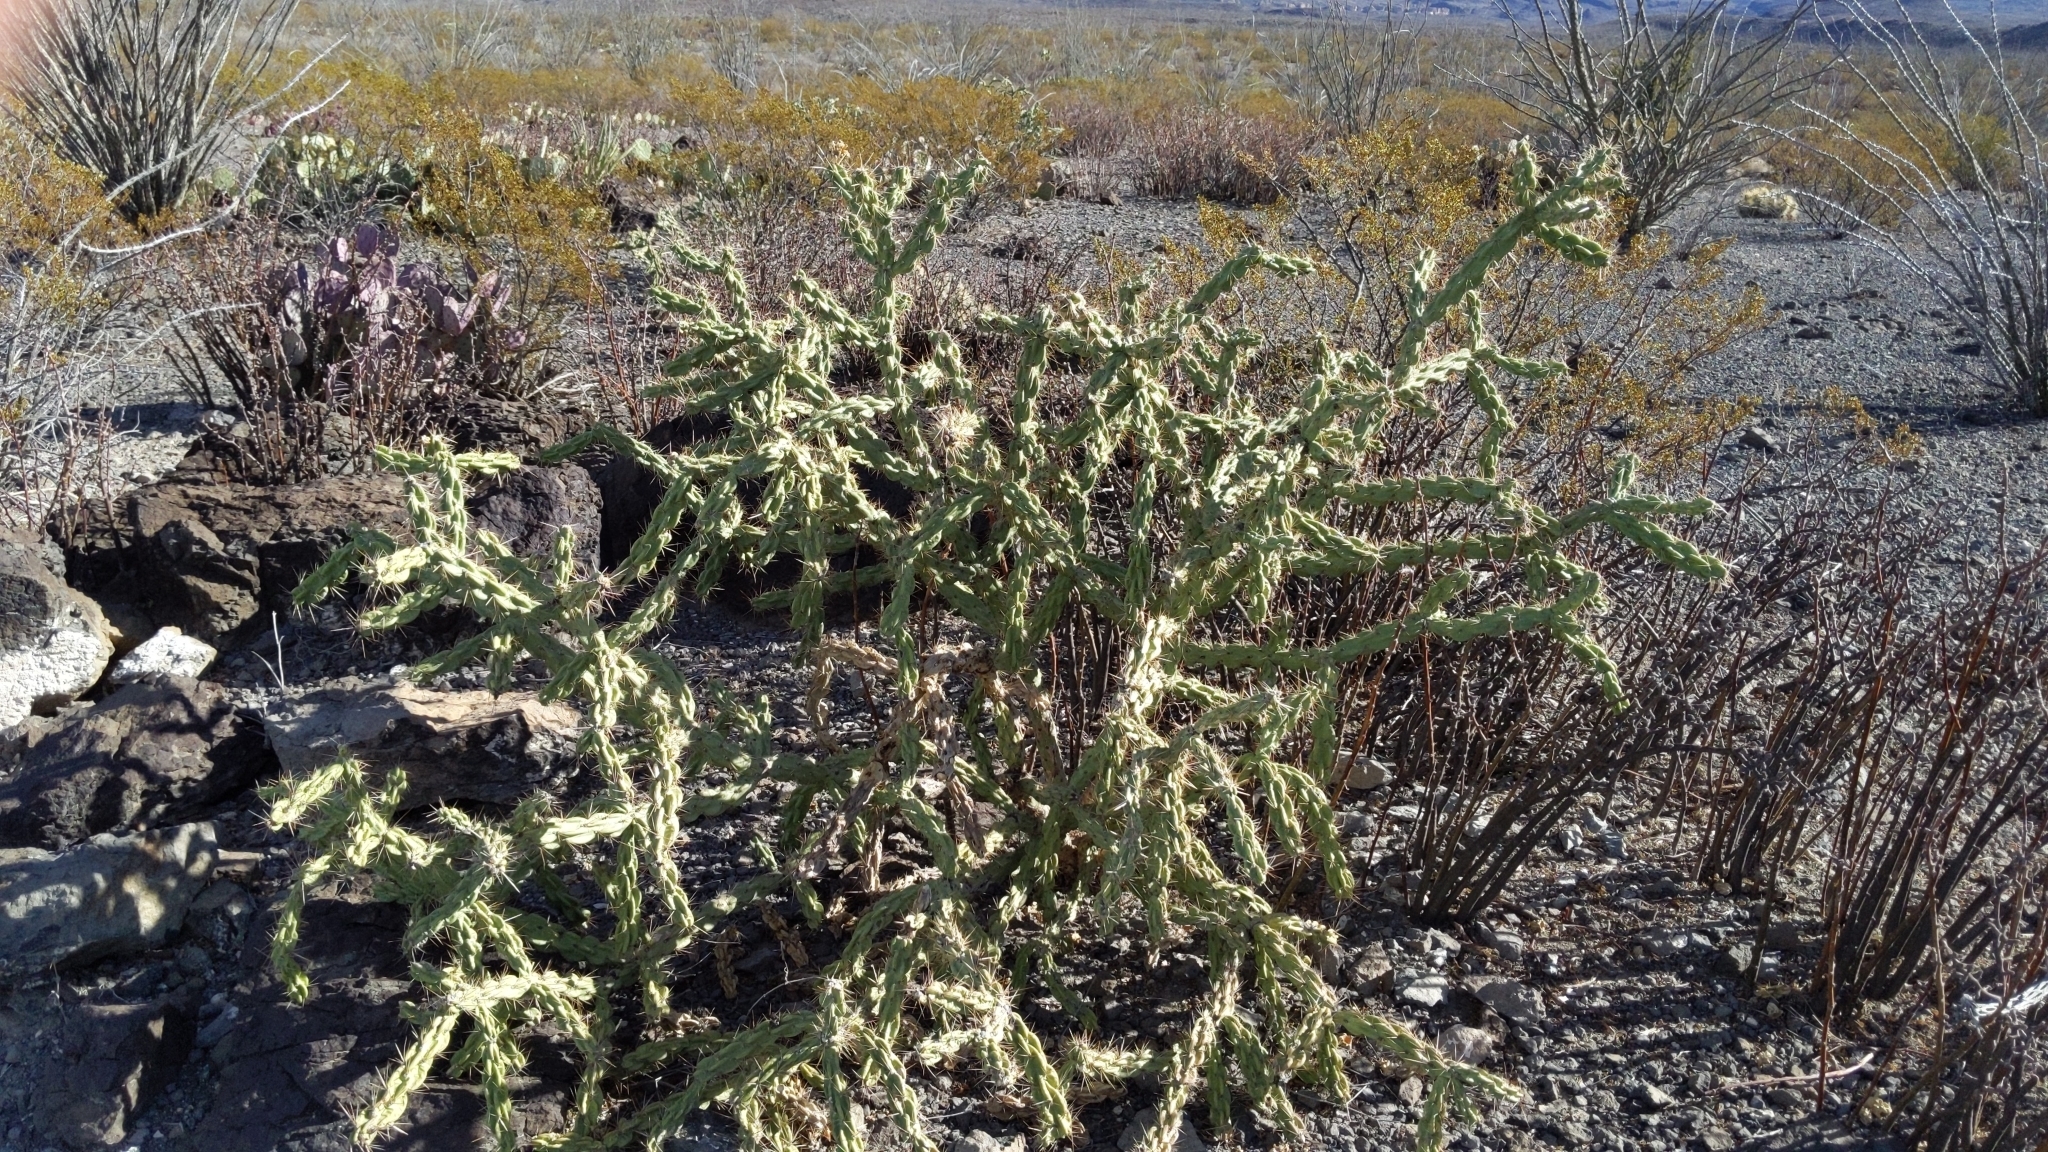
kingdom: Plantae
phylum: Tracheophyta
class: Magnoliopsida
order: Caryophyllales
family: Cactaceae
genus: Cylindropuntia
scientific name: Cylindropuntia imbricata
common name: Candelabrum cactus
